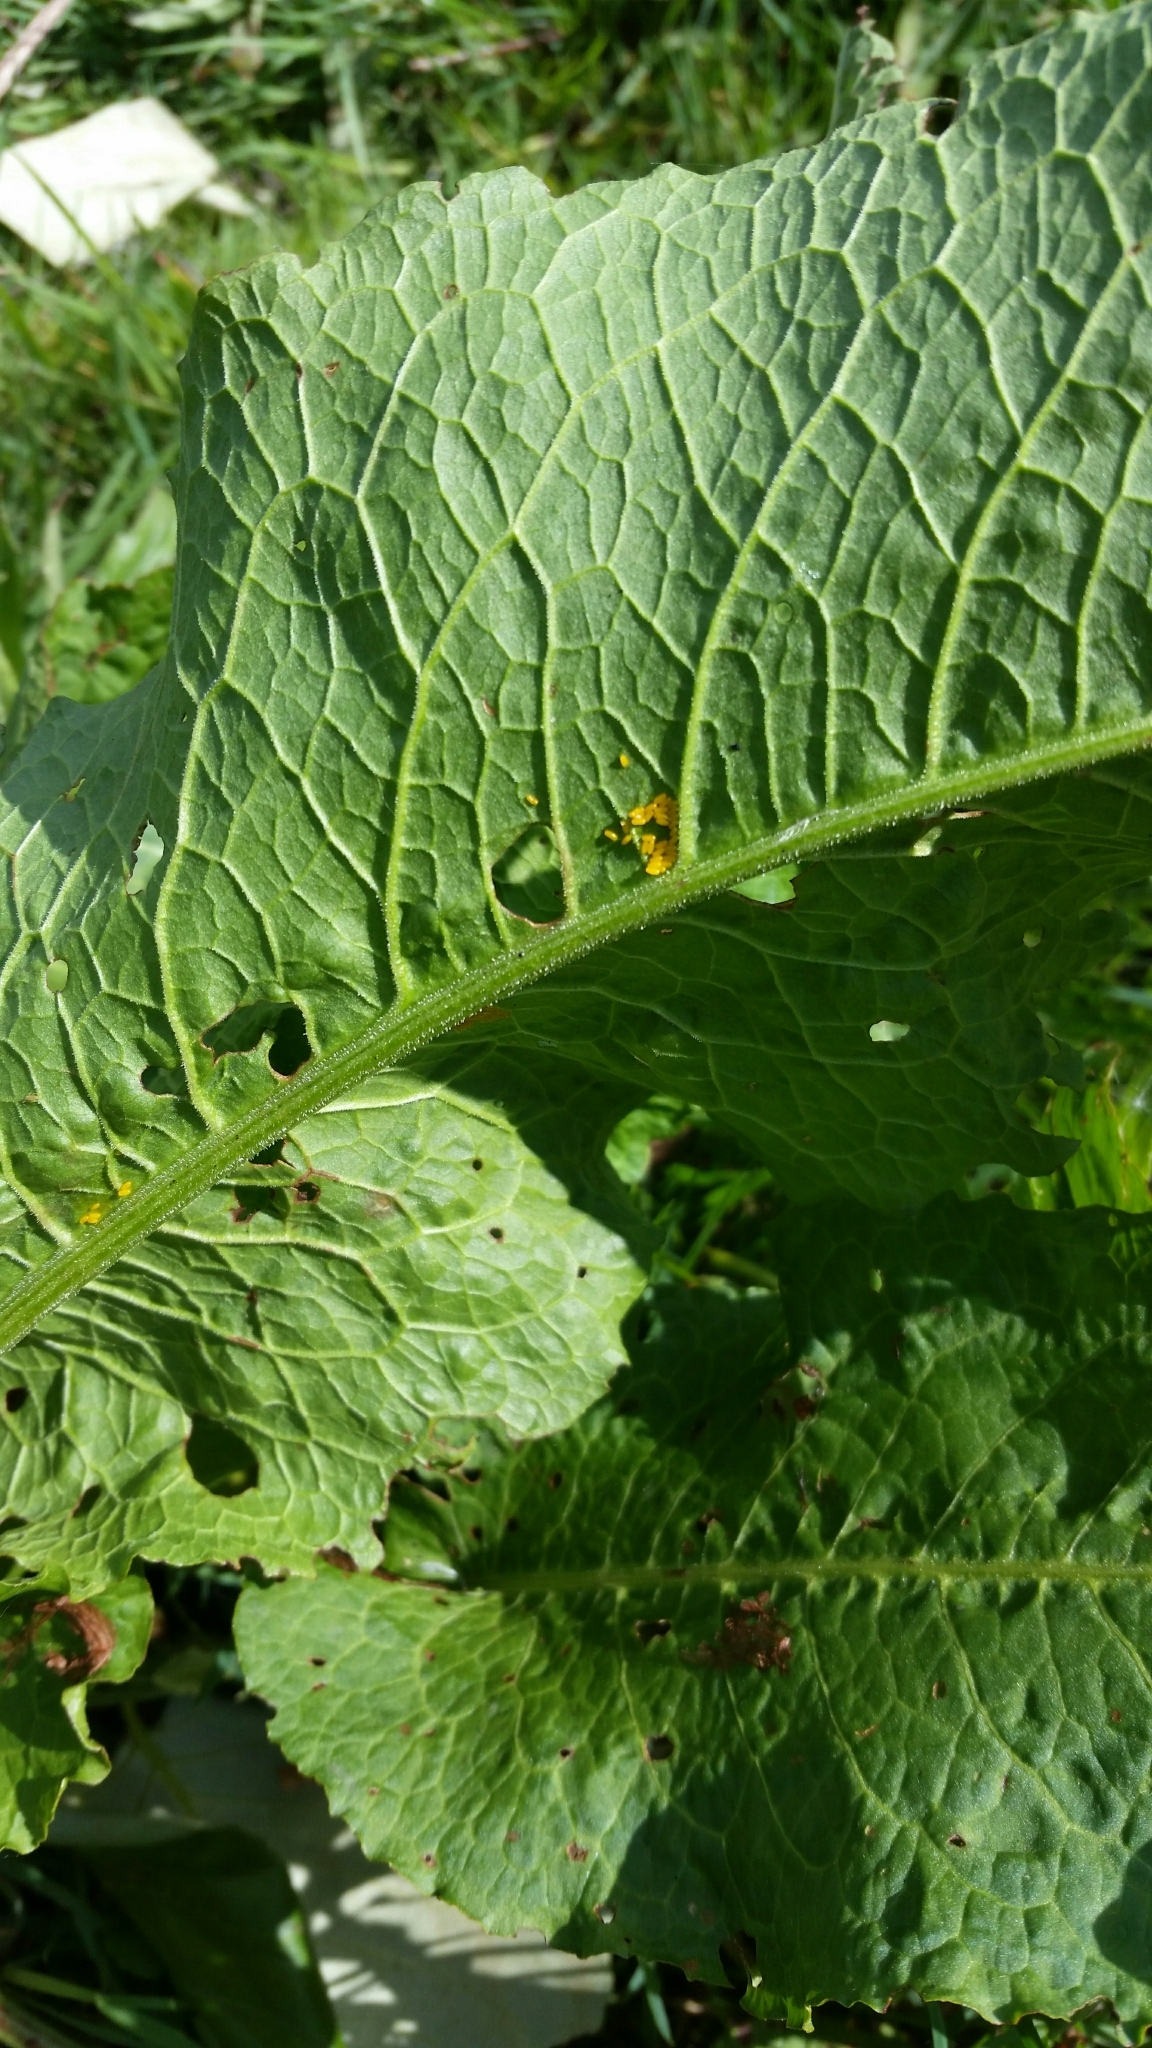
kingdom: Animalia
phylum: Arthropoda
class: Insecta
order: Coleoptera
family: Chrysomelidae
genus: Gastrophysa
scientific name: Gastrophysa viridula
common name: Green dock beetle
